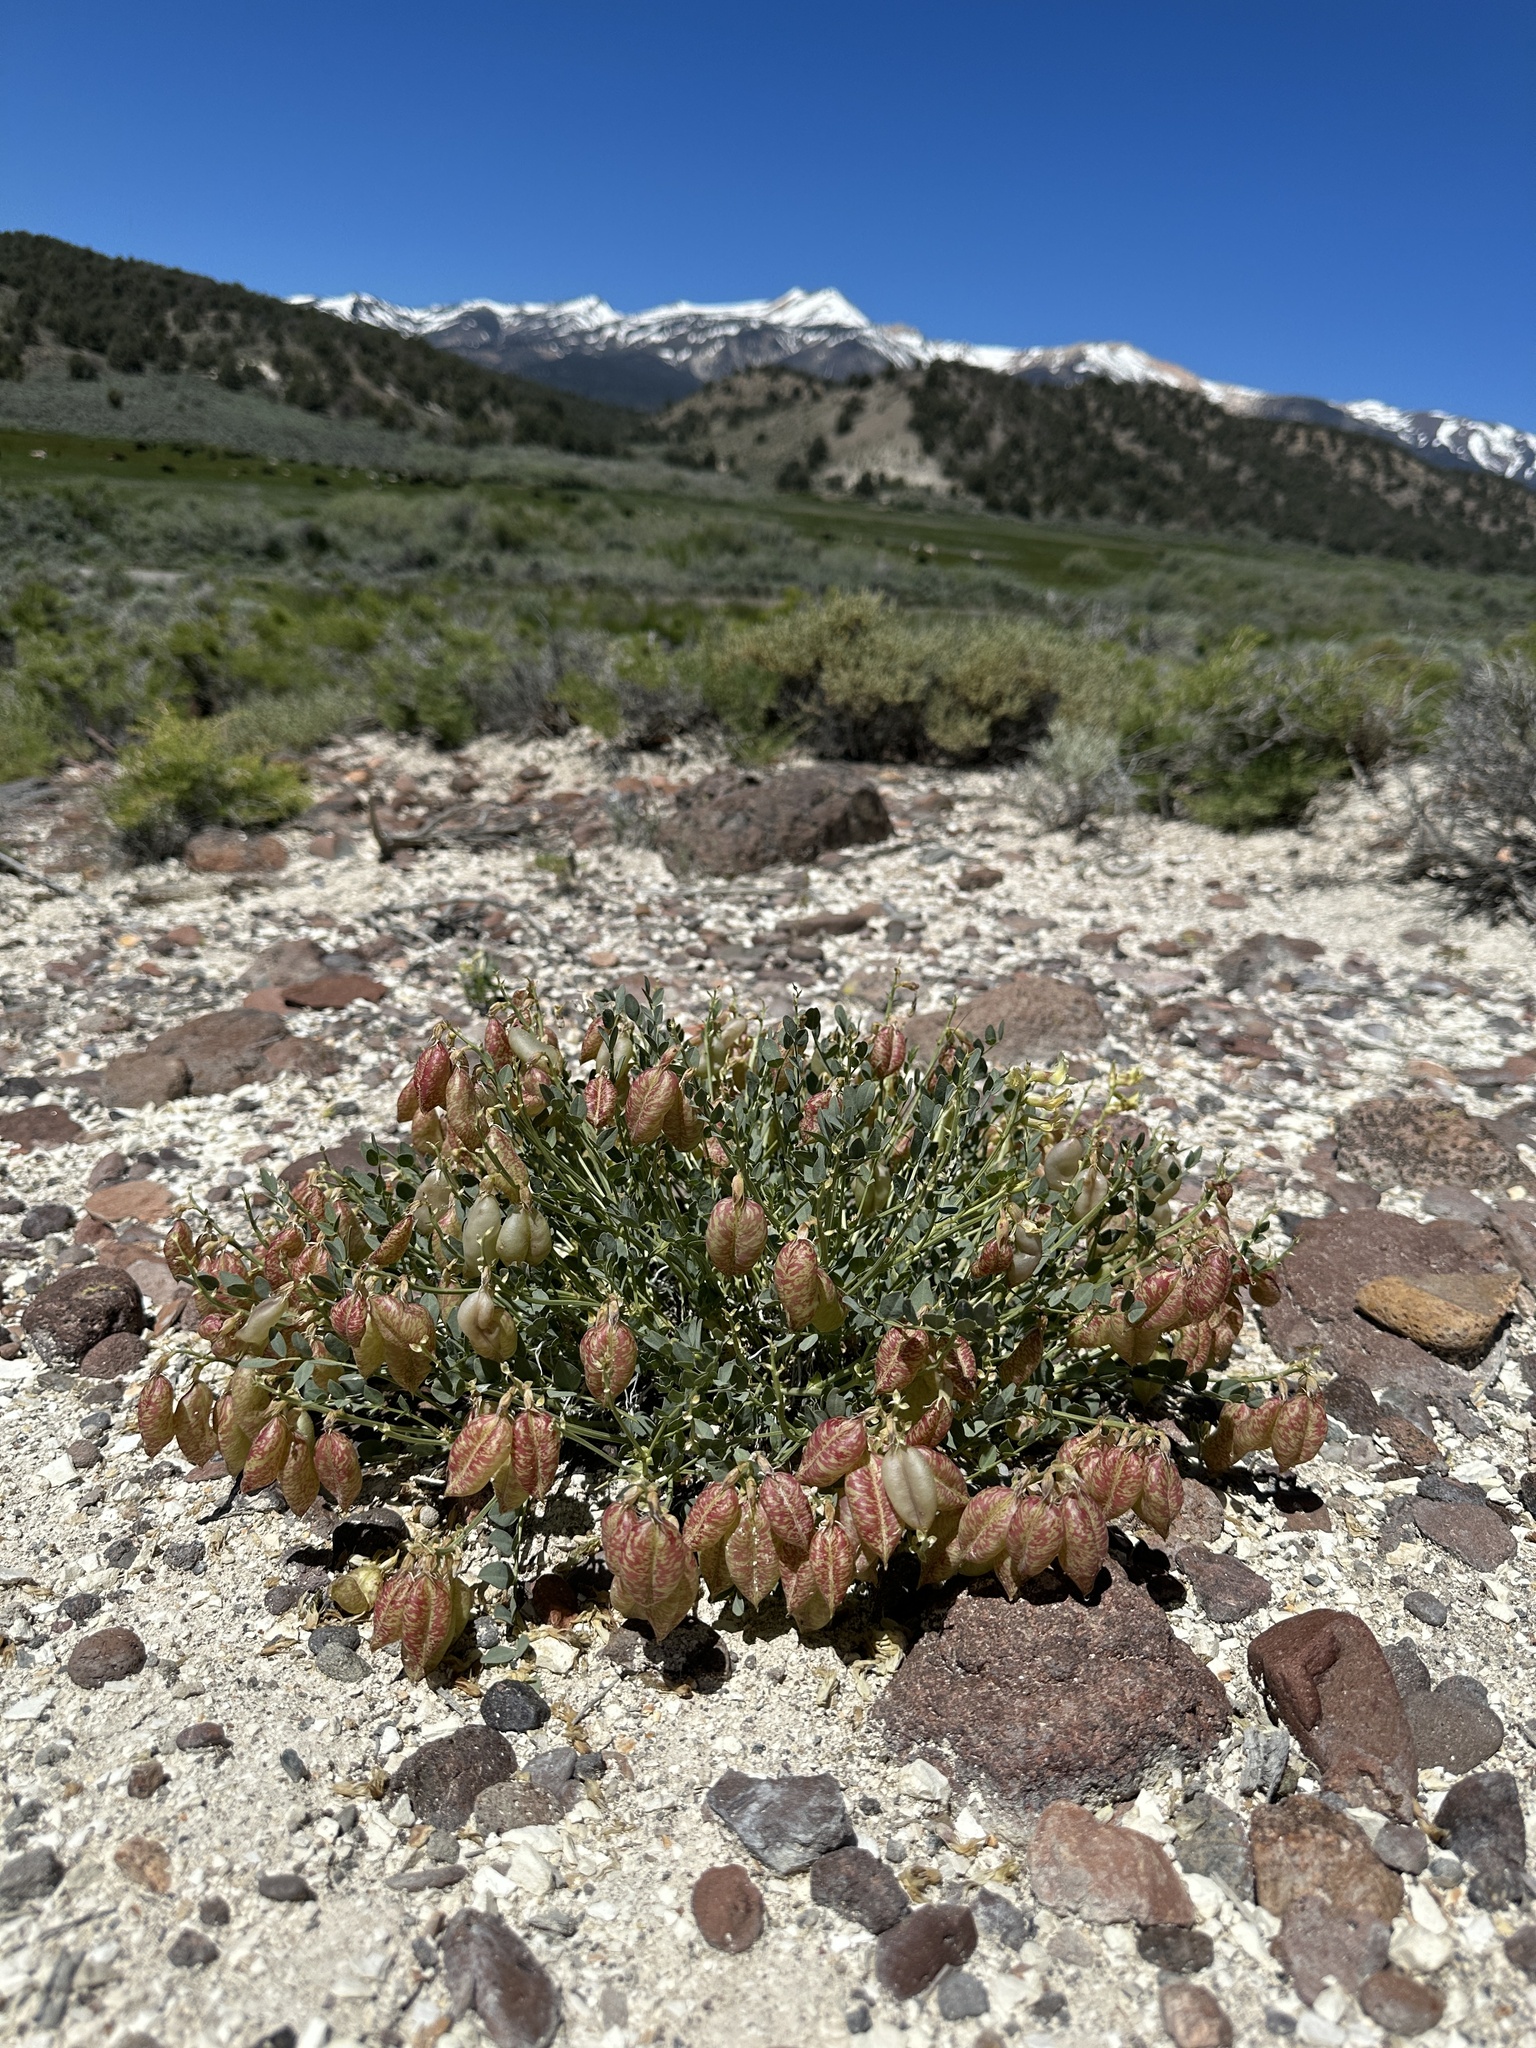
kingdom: Plantae
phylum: Tracheophyta
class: Magnoliopsida
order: Fabales
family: Fabaceae
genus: Astragalus
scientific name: Astragalus oophorus
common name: Egg milkvetch
